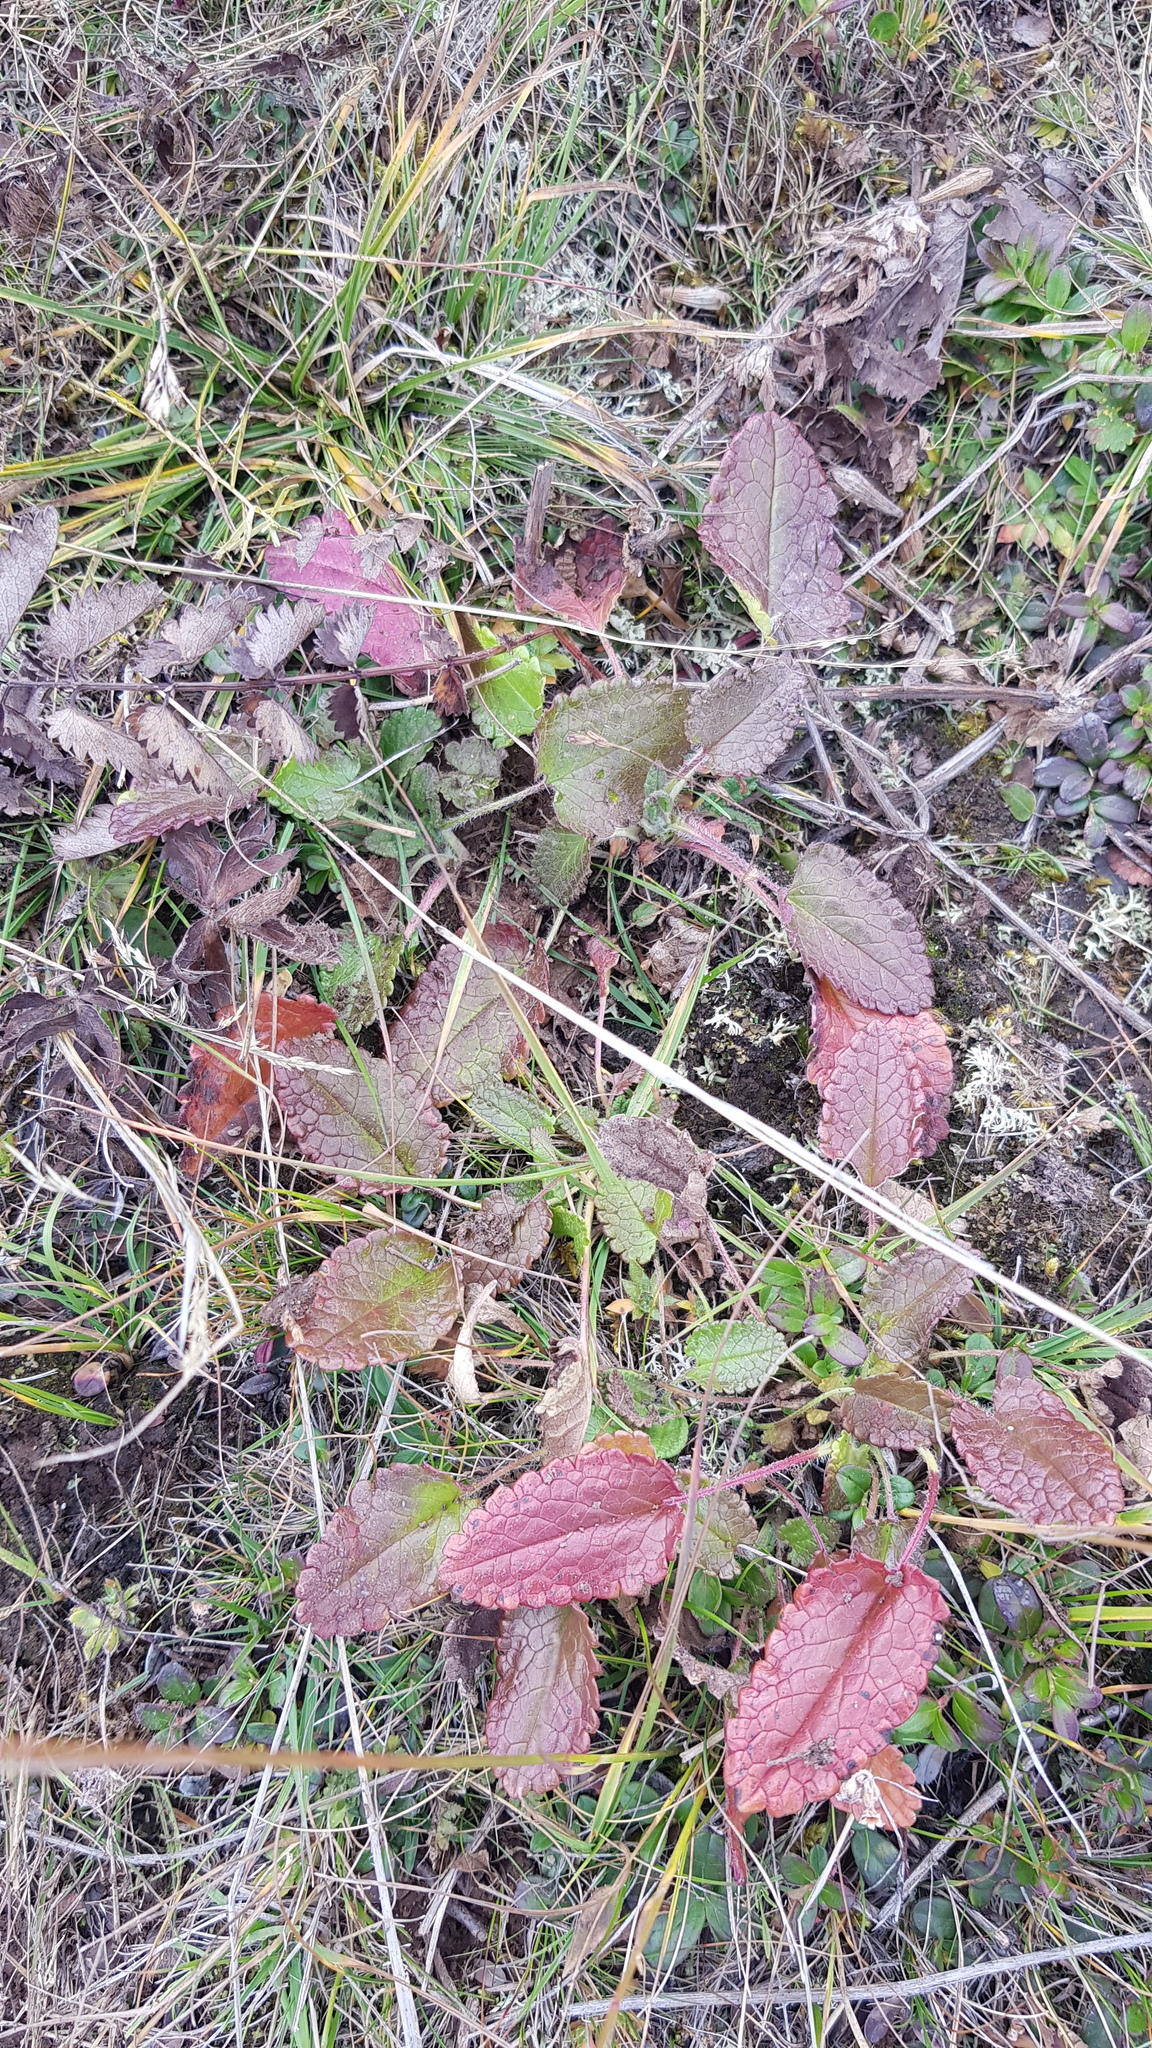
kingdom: Plantae
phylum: Tracheophyta
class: Magnoliopsida
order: Lamiales
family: Lamiaceae
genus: Dracocephalum
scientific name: Dracocephalum grandiflorum
